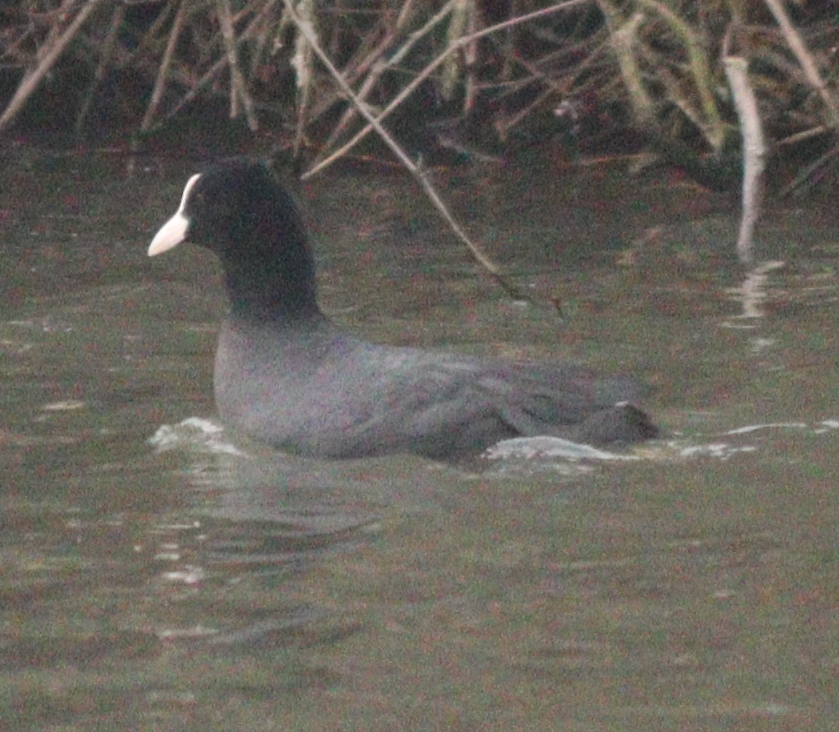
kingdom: Animalia
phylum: Chordata
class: Aves
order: Gruiformes
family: Rallidae
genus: Fulica
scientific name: Fulica atra
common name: Eurasian coot
